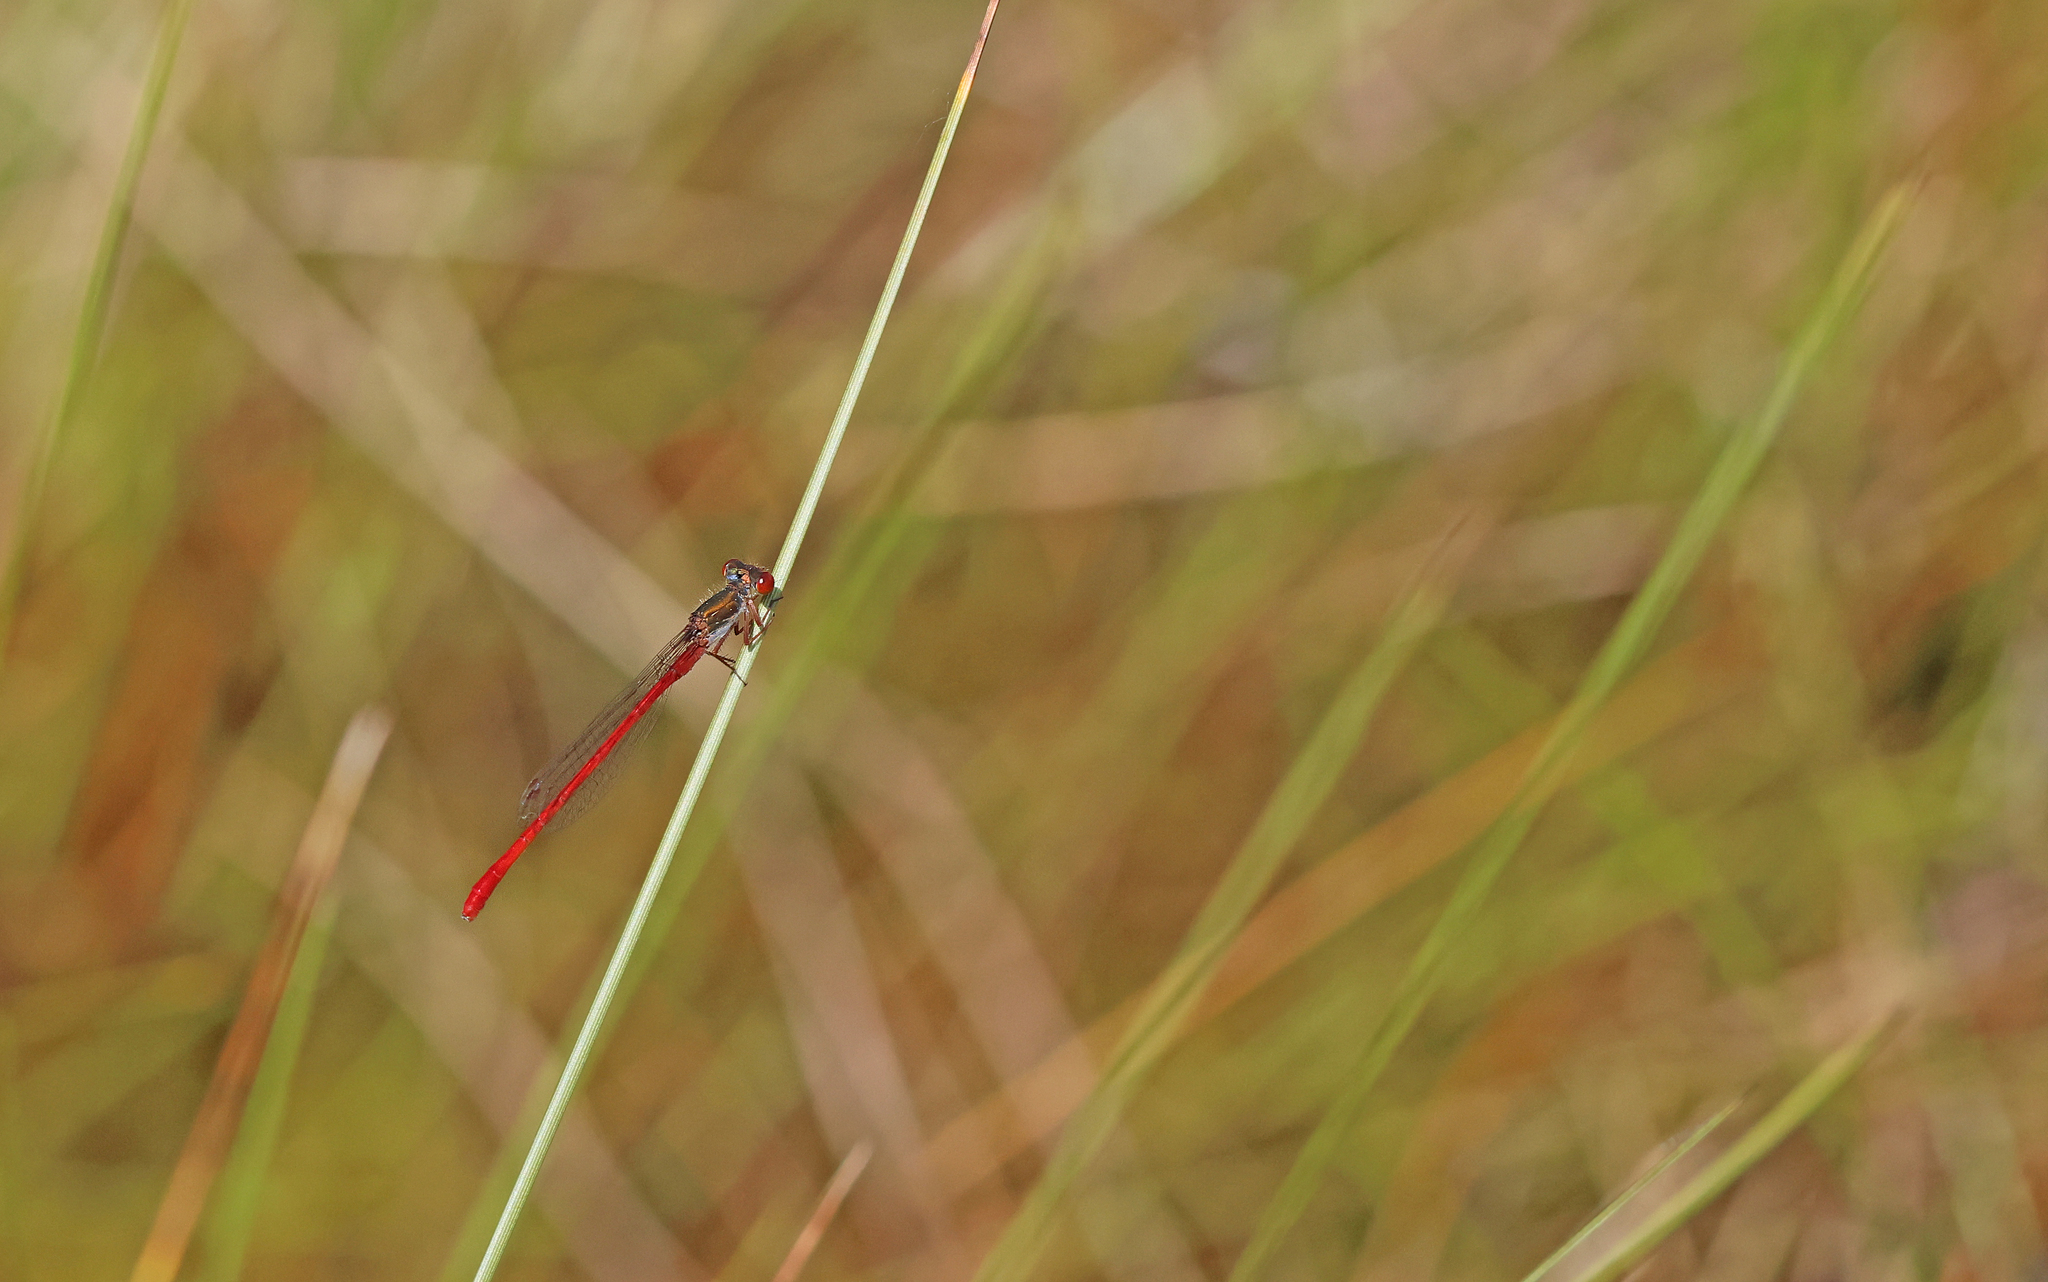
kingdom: Animalia
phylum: Arthropoda
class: Insecta
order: Odonata
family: Coenagrionidae
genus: Ceriagrion
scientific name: Ceriagrion tenellum
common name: Small red damselfly
